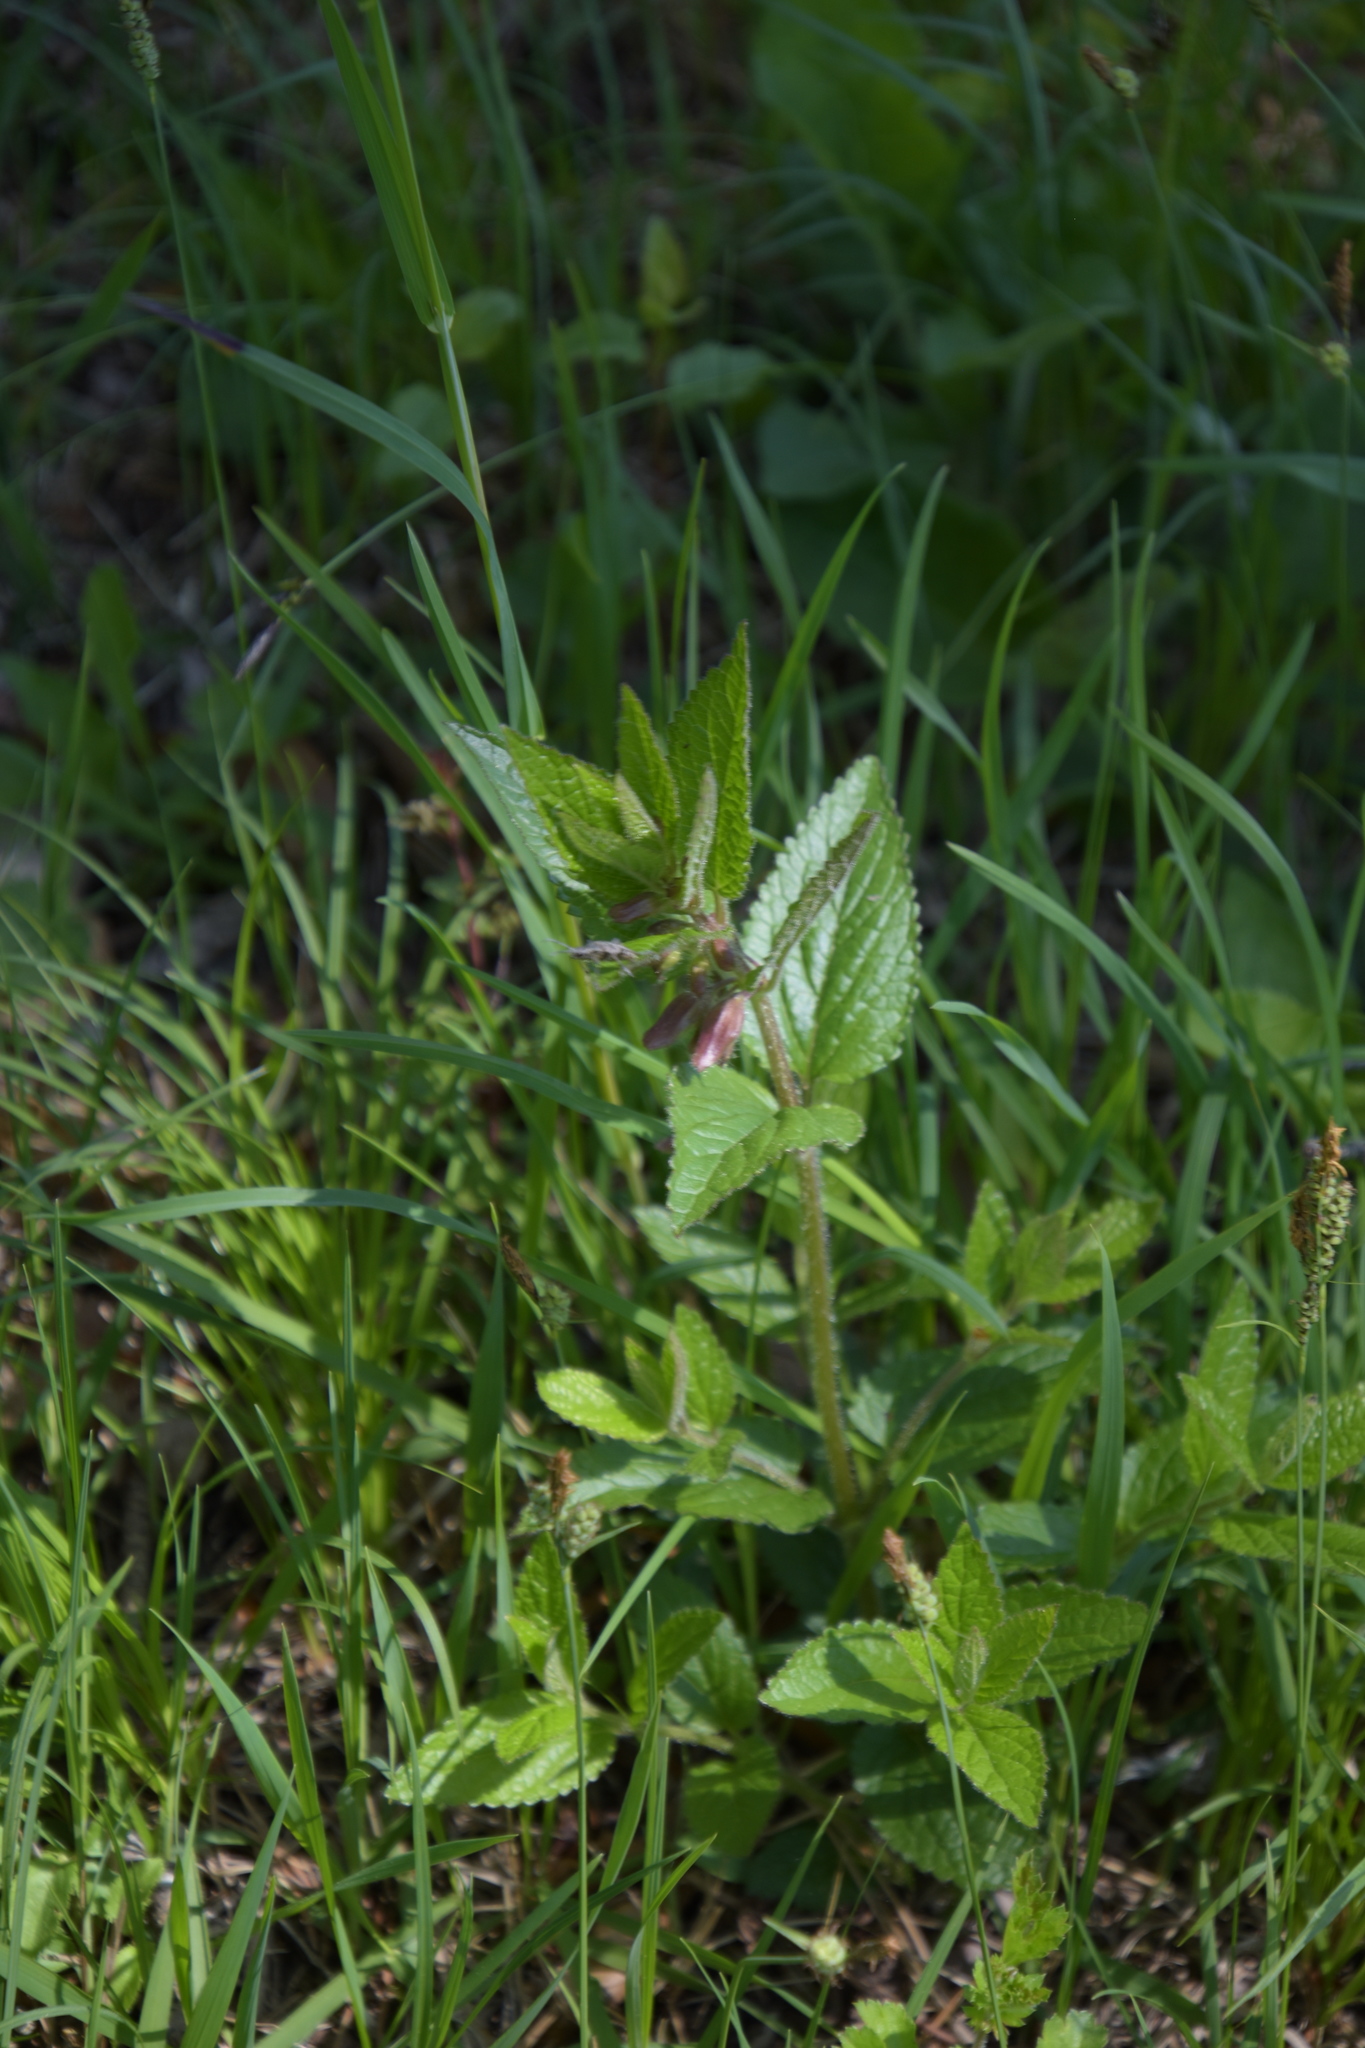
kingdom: Plantae
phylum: Tracheophyta
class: Magnoliopsida
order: Lamiales
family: Lamiaceae
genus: Melittis
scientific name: Melittis melissophyllum
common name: Bastard balm
